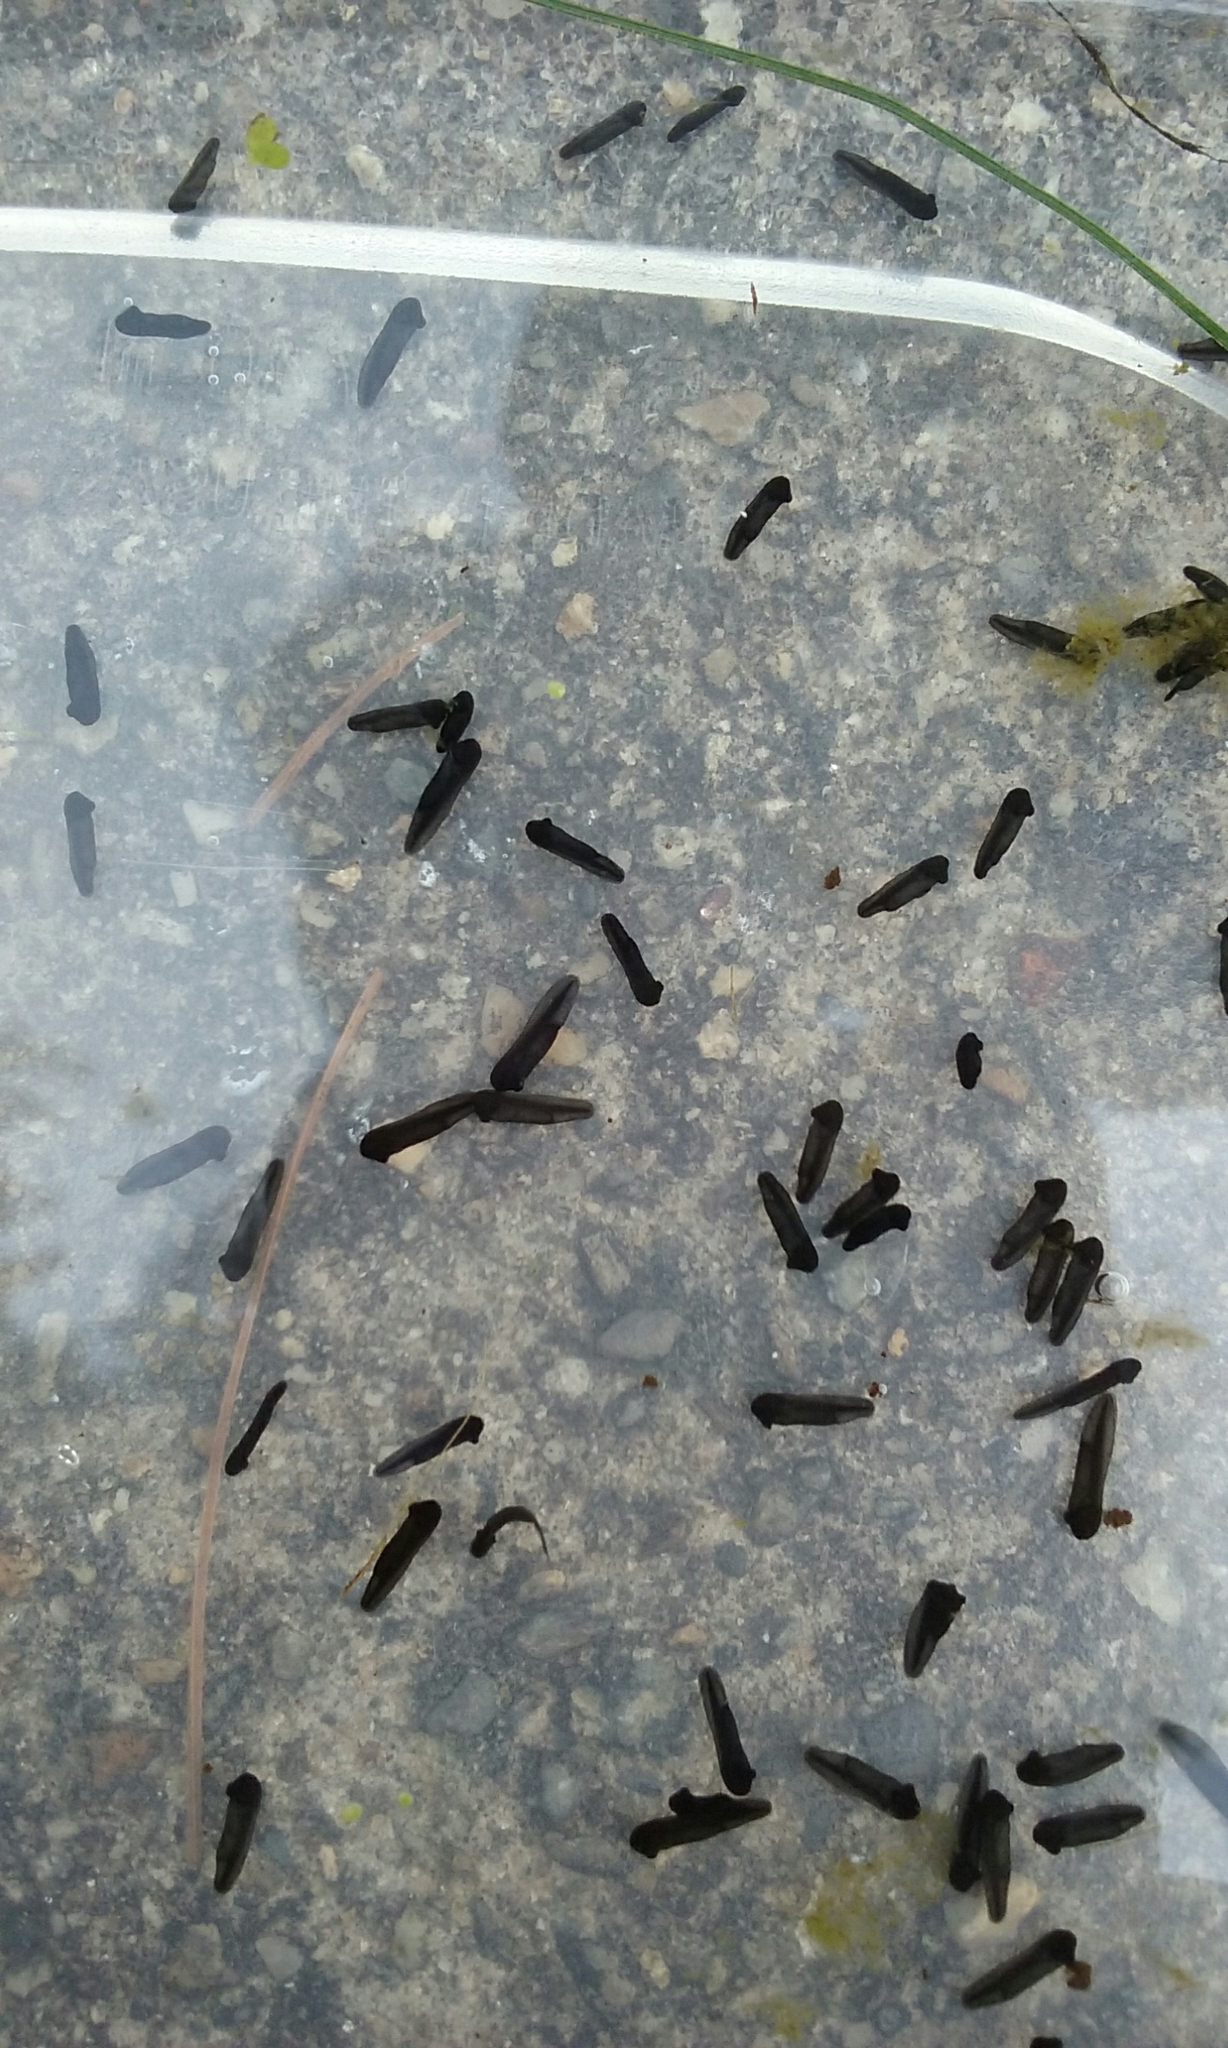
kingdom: Animalia
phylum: Chordata
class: Amphibia
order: Anura
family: Bufonidae
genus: Anaxyrus
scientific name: Anaxyrus americanus
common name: American toad
